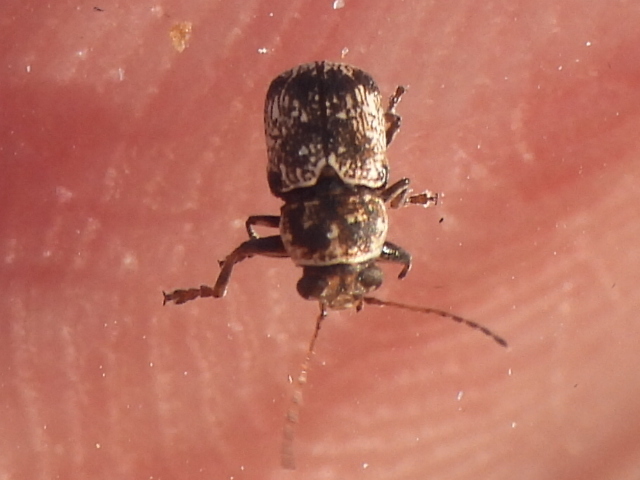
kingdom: Animalia
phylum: Arthropoda
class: Insecta
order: Coleoptera
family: Chrysomelidae
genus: Pachybrachis
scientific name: Pachybrachis brevicollis
